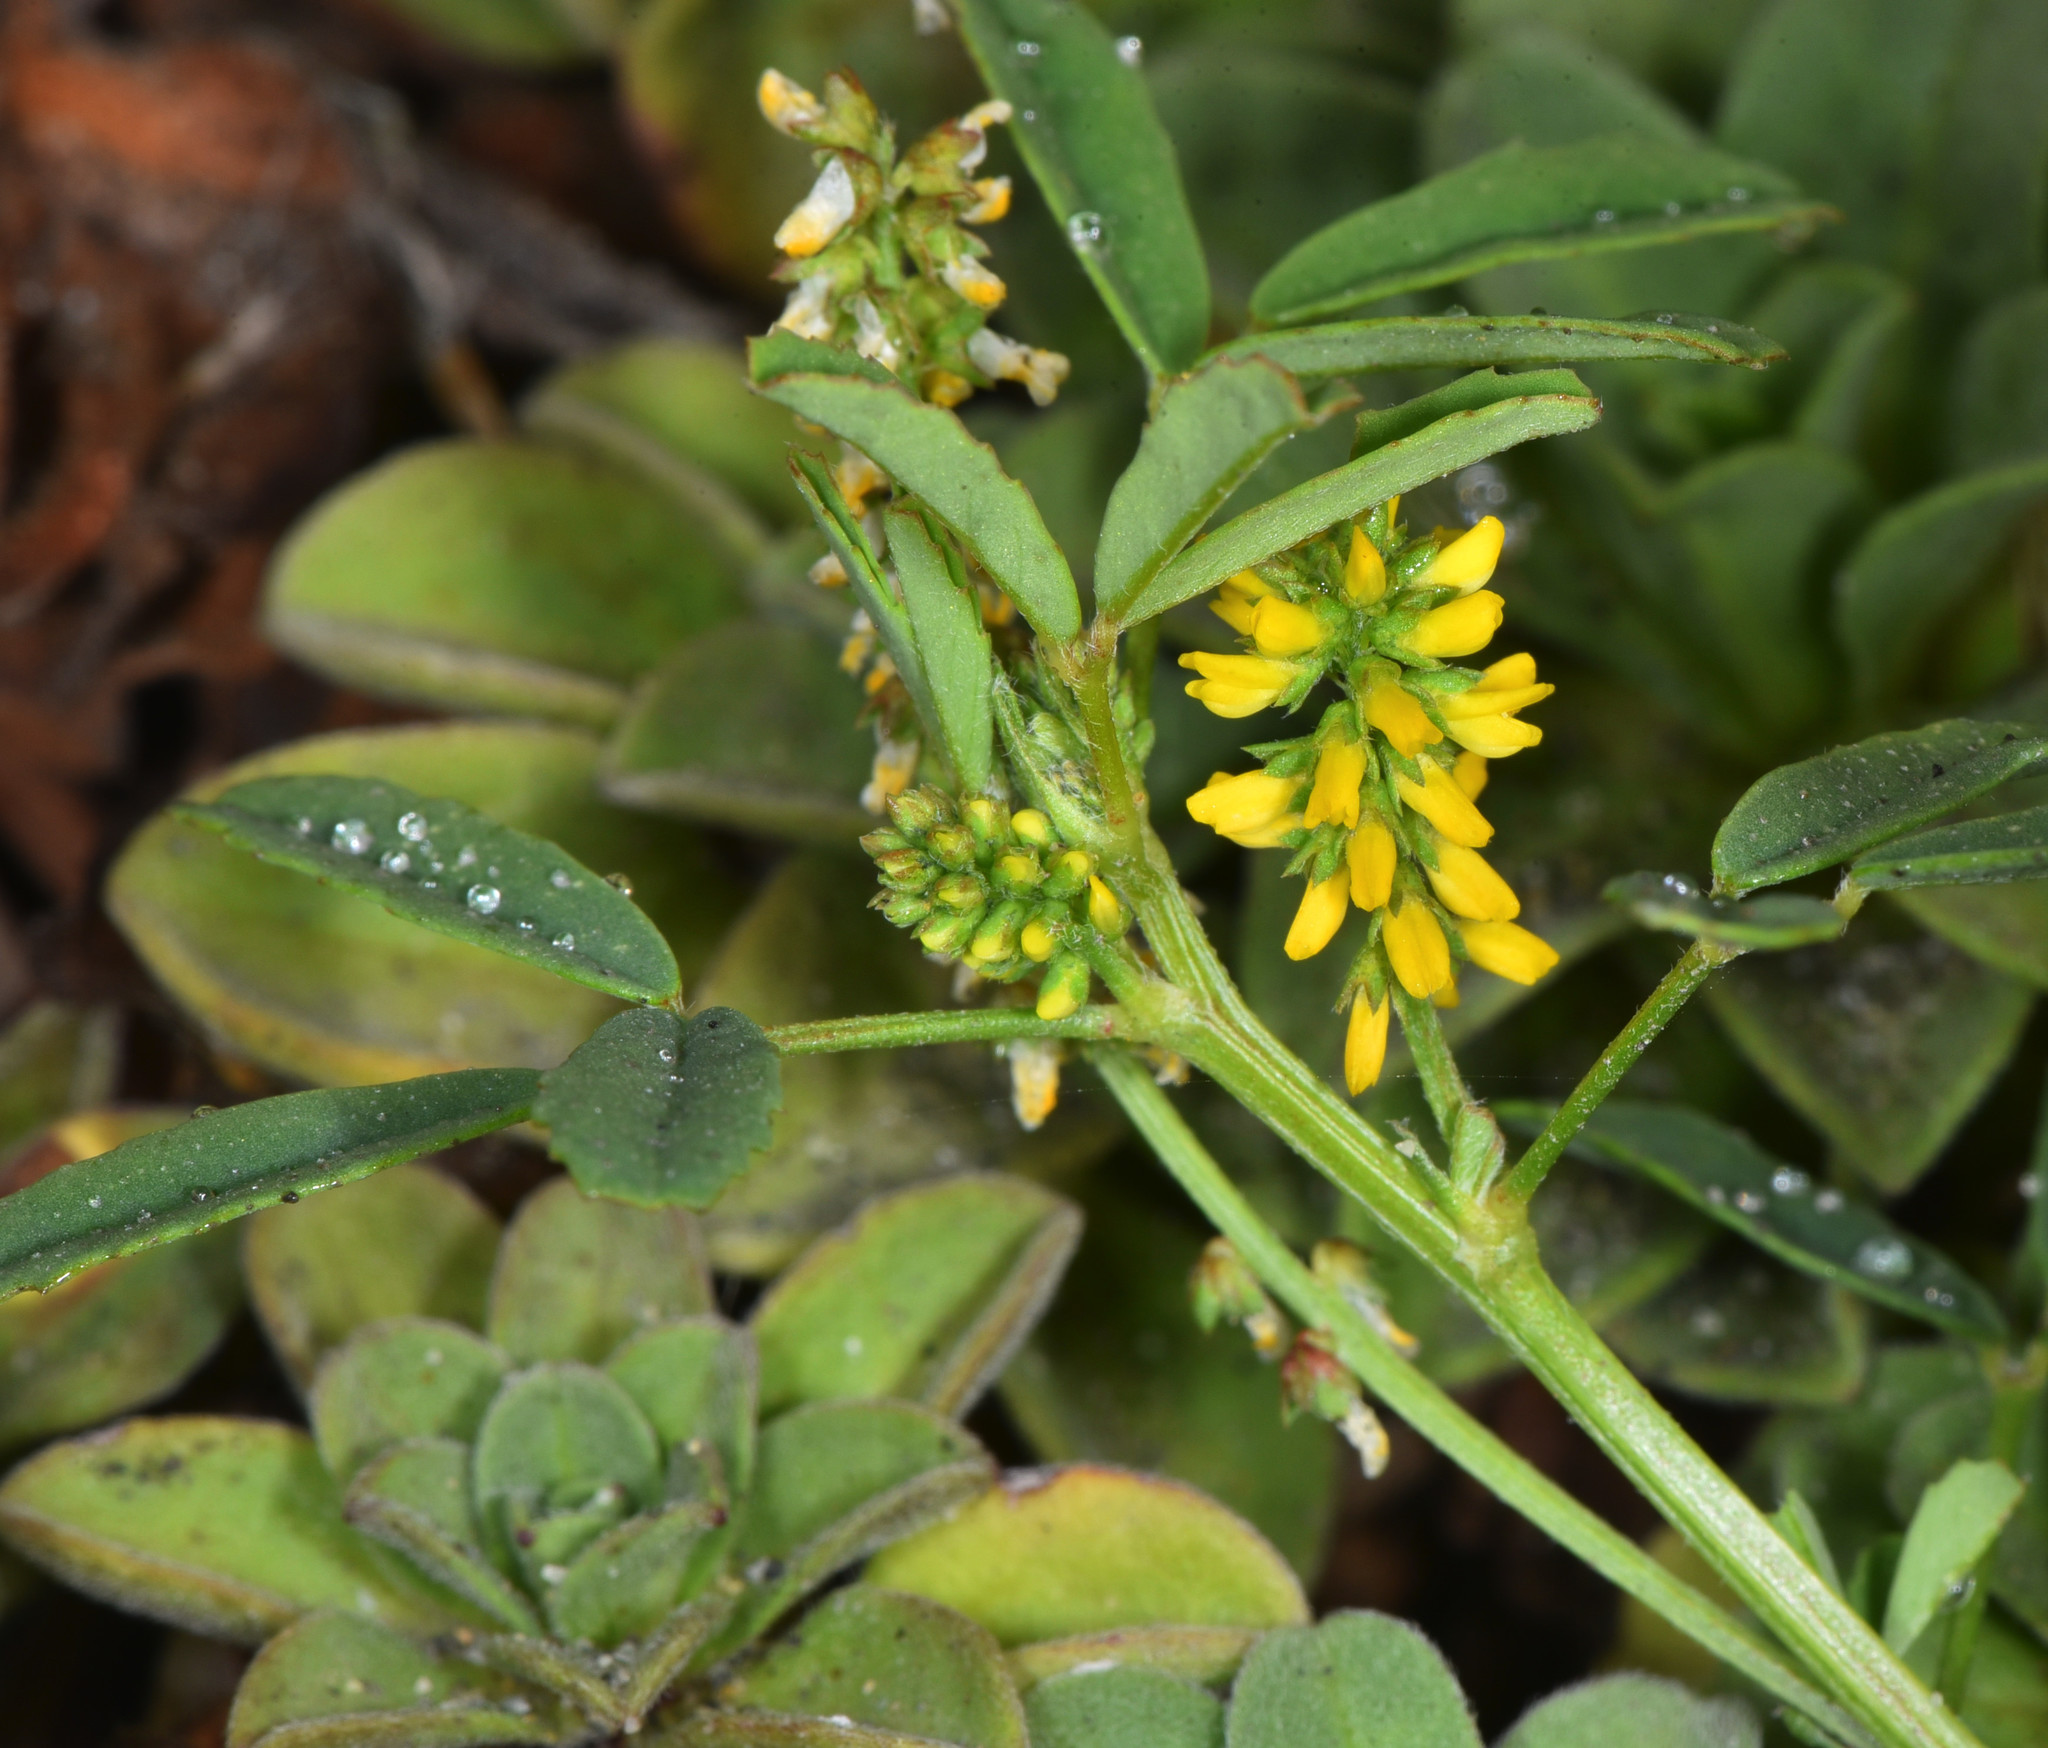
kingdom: Plantae
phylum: Tracheophyta
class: Magnoliopsida
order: Fabales
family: Fabaceae
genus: Melilotus
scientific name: Melilotus indicus
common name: Small melilot
